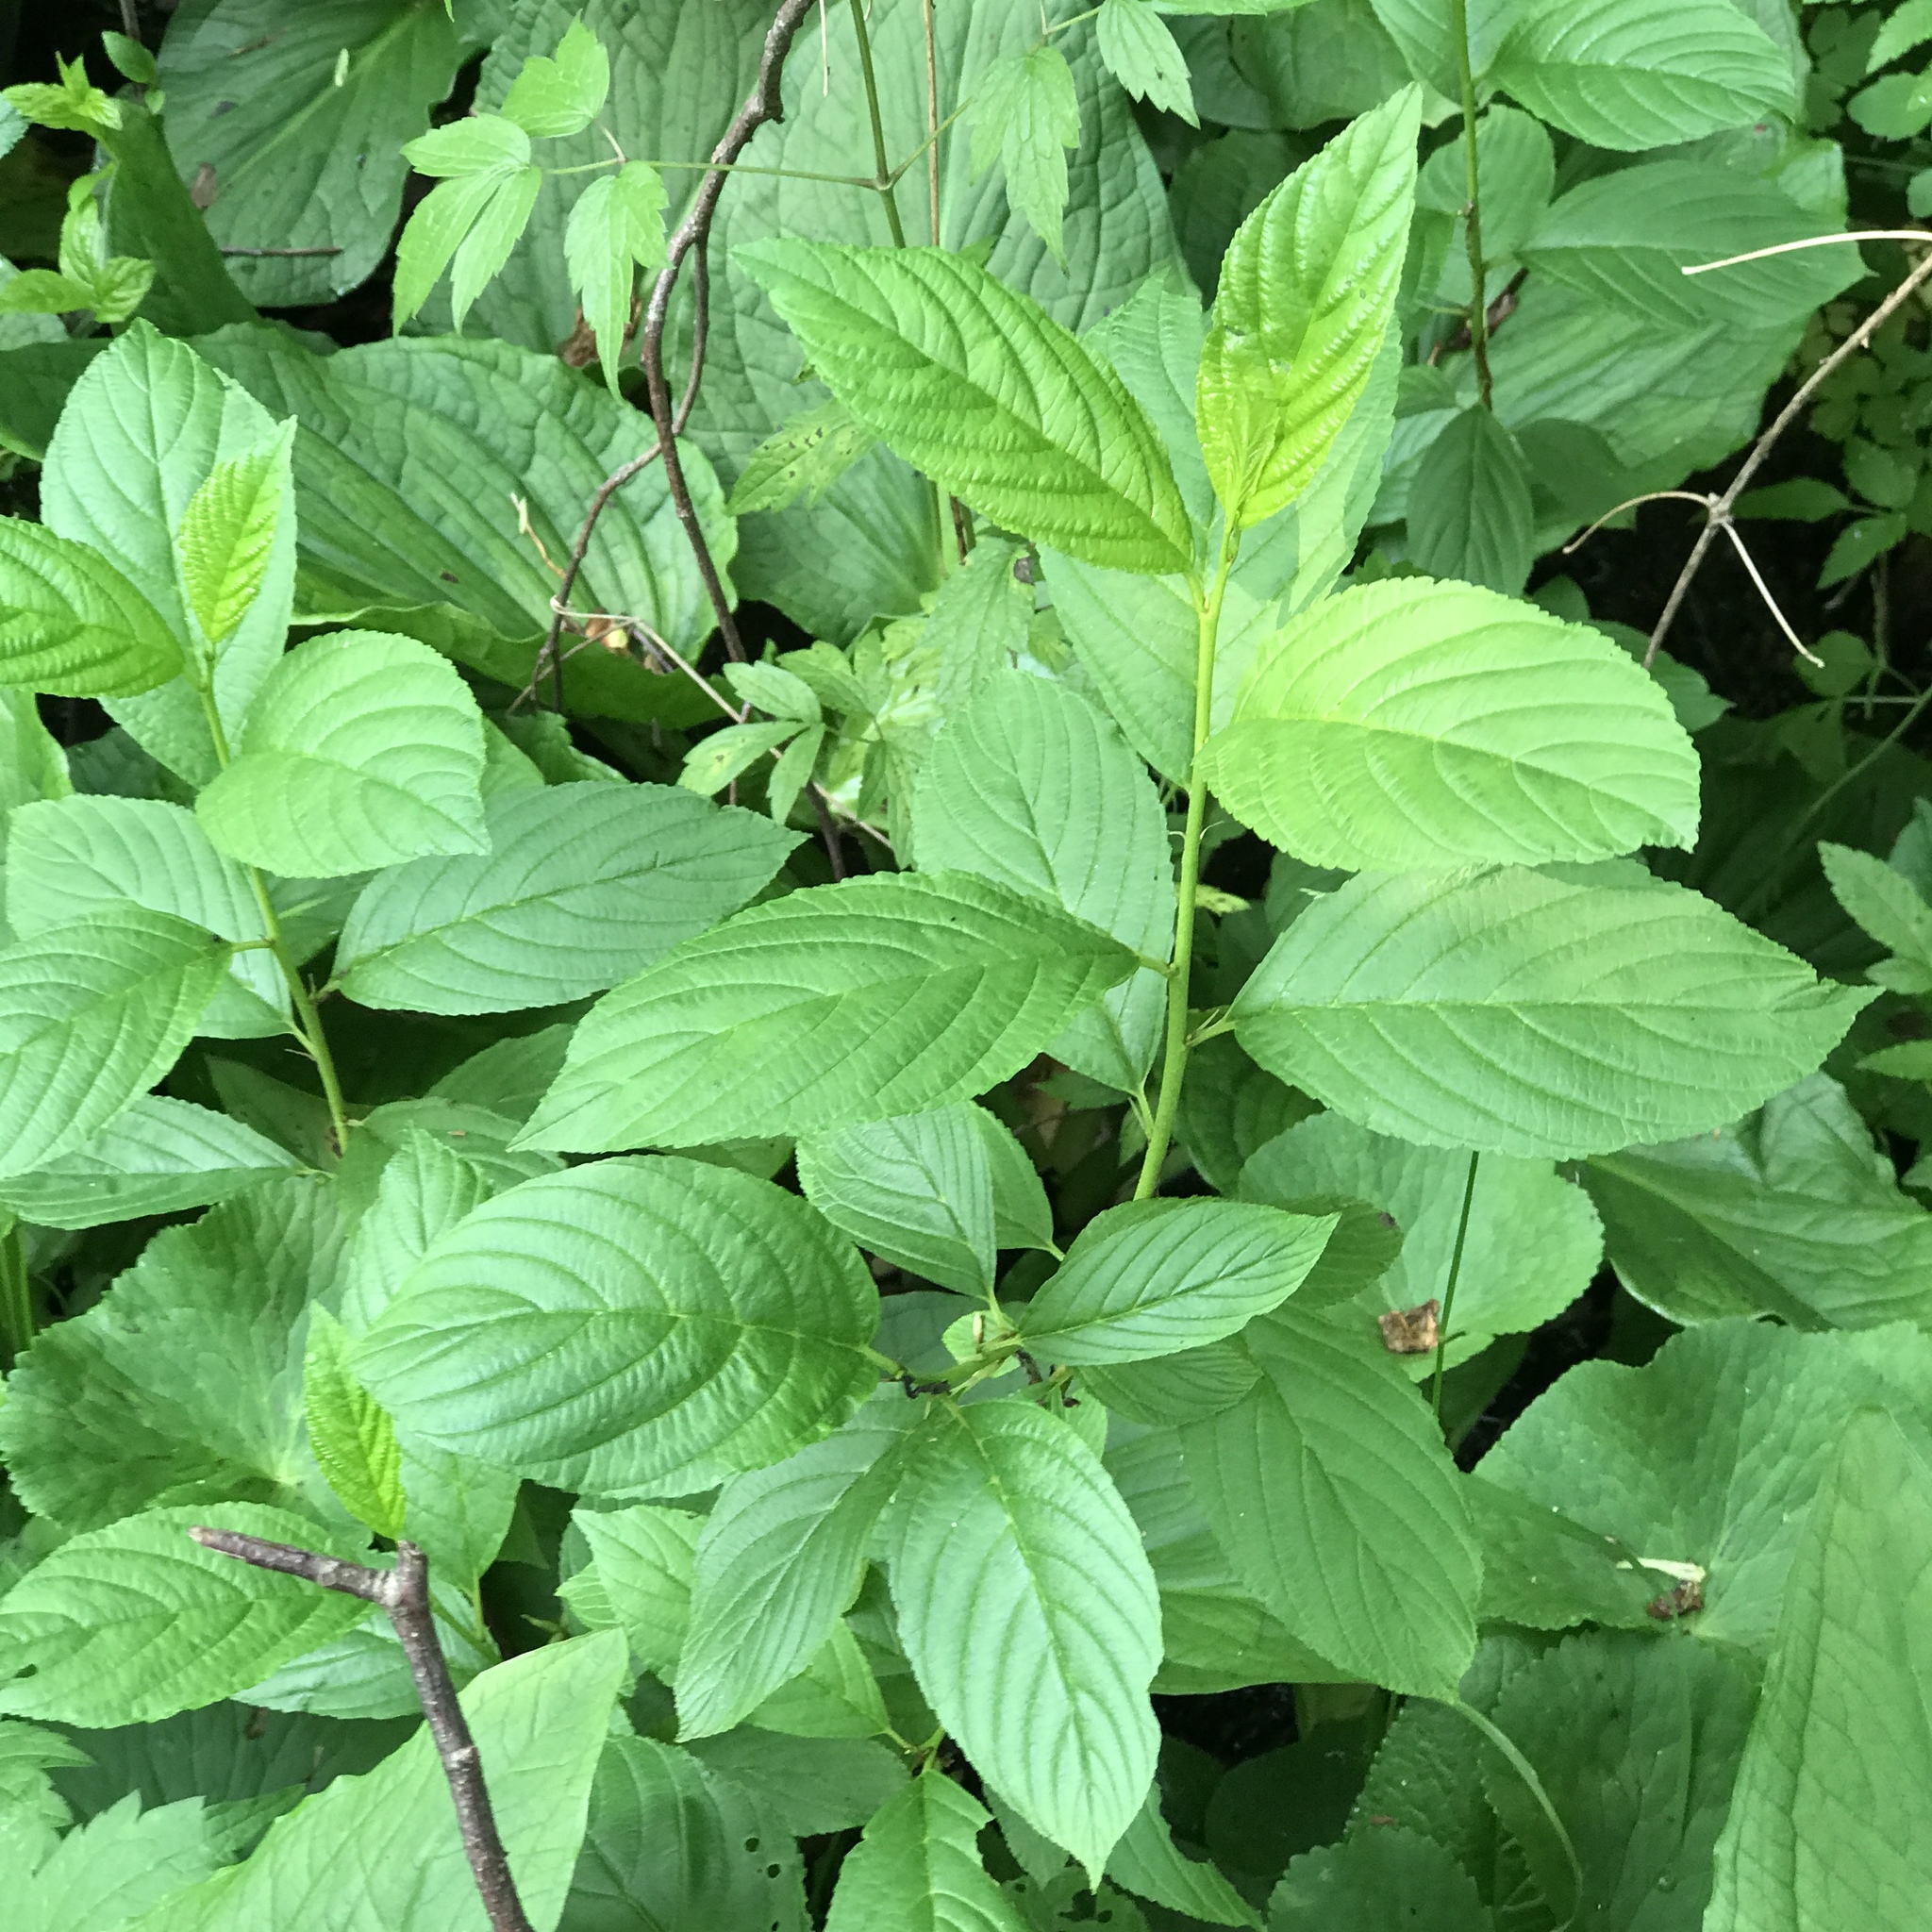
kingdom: Plantae
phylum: Tracheophyta
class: Magnoliopsida
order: Rosales
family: Rhamnaceae
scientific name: Rhamnaceae
